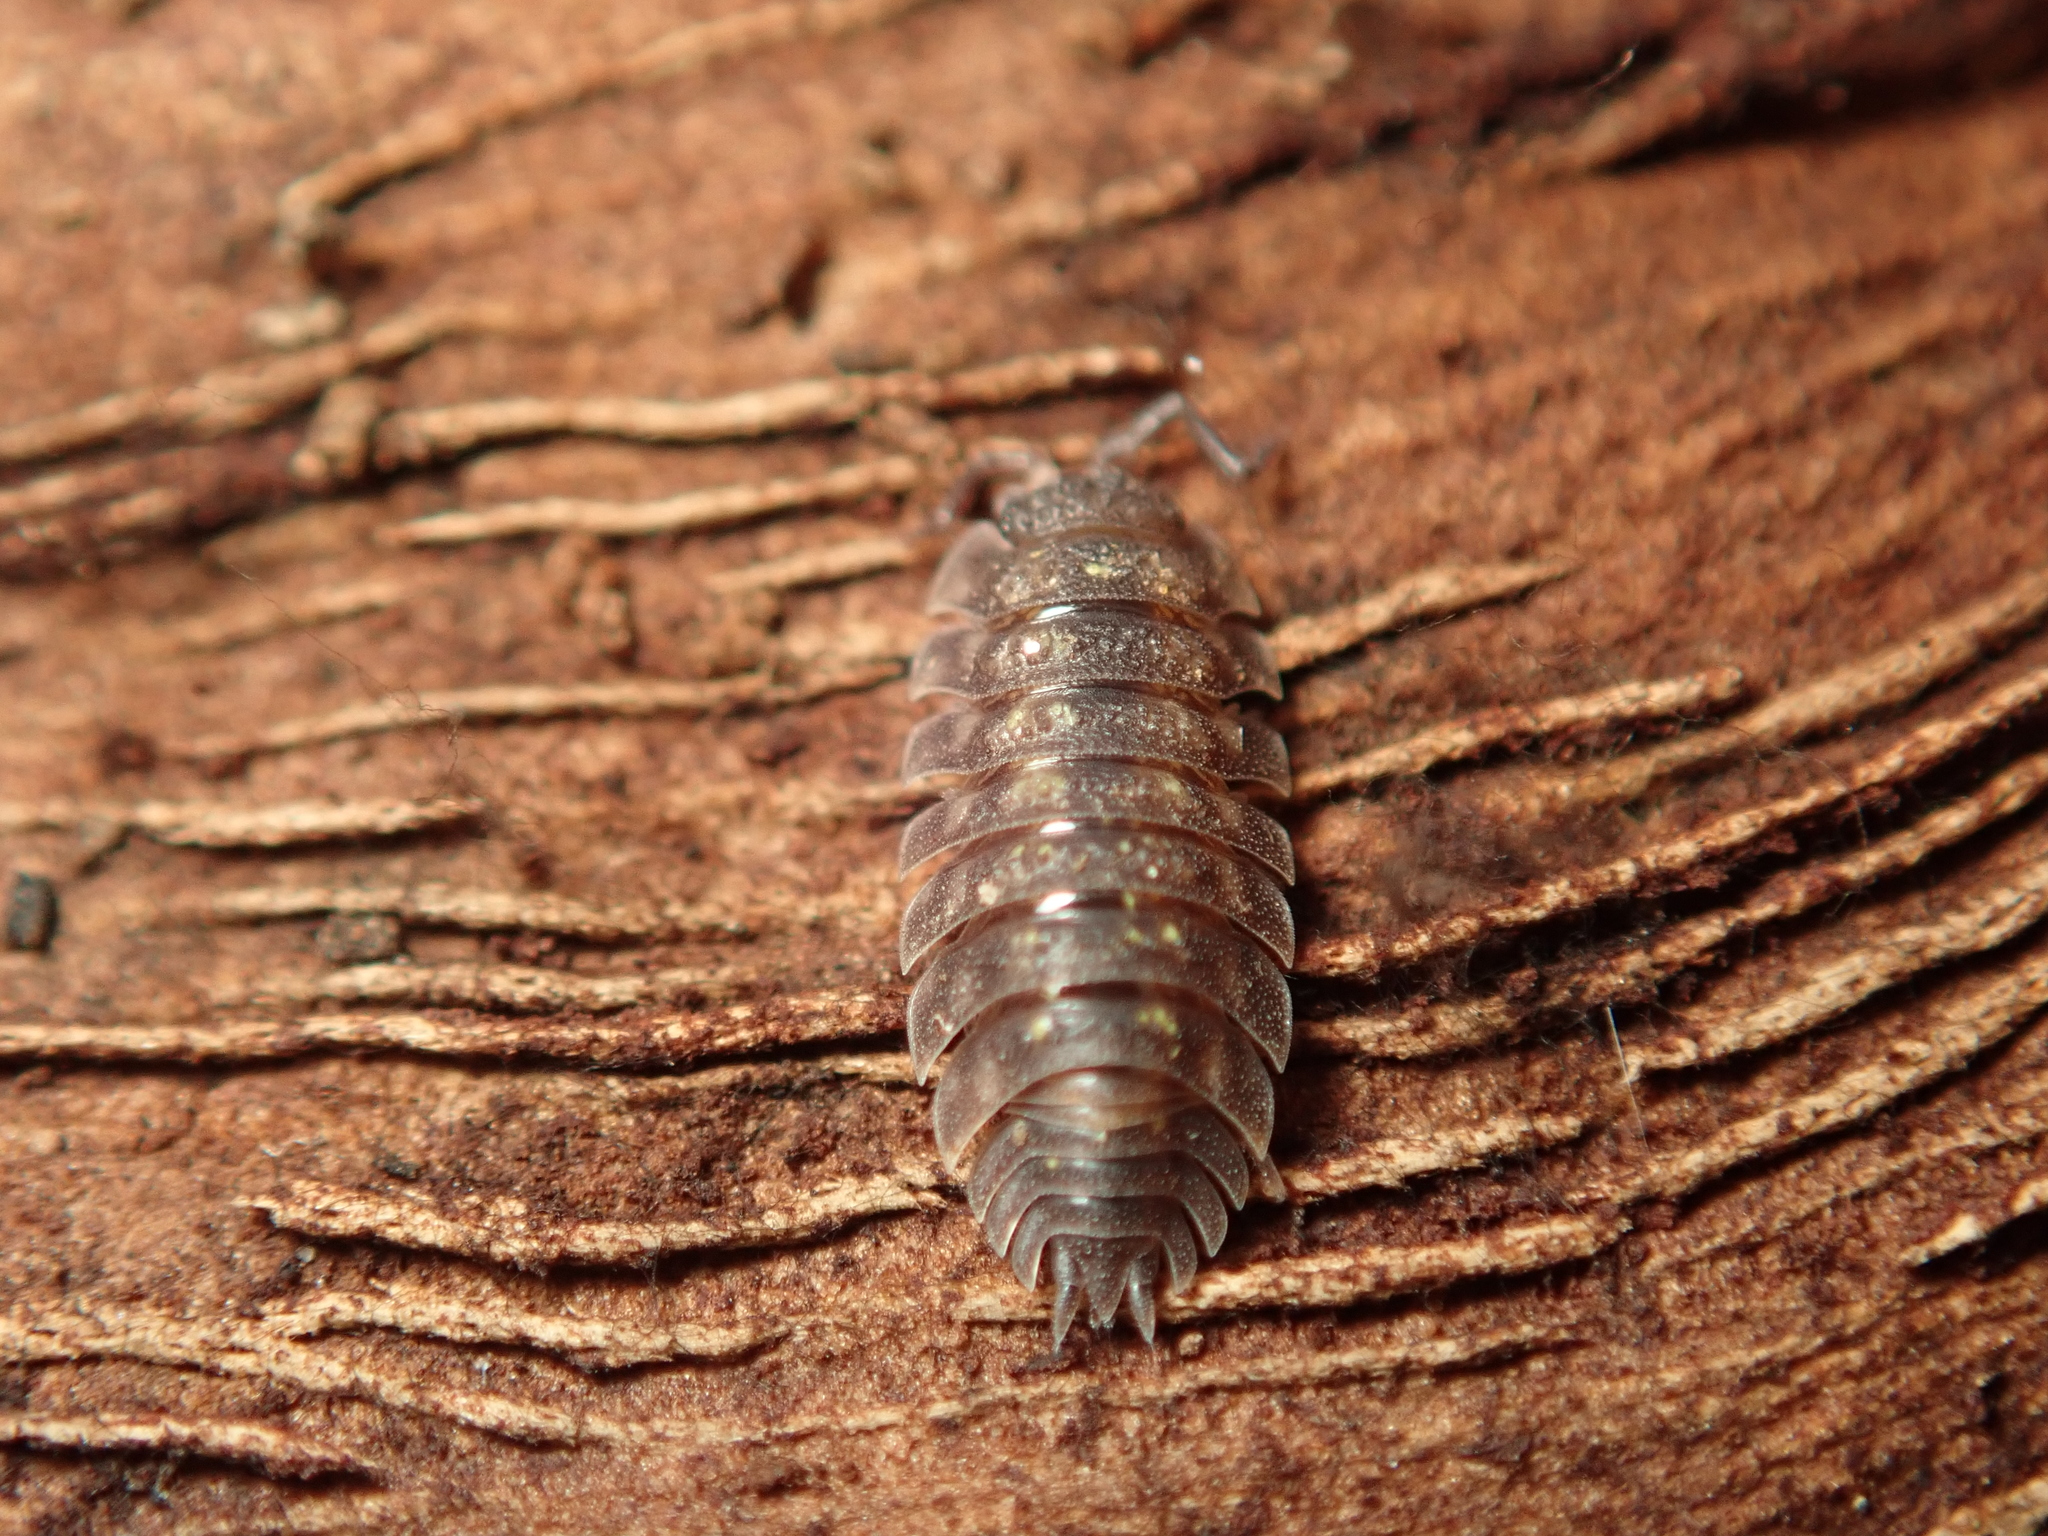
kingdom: Animalia
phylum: Arthropoda
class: Malacostraca
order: Isopoda
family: Oniscidae
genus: Oniscus
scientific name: Oniscus asellus
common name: Common shiny woodlouse
